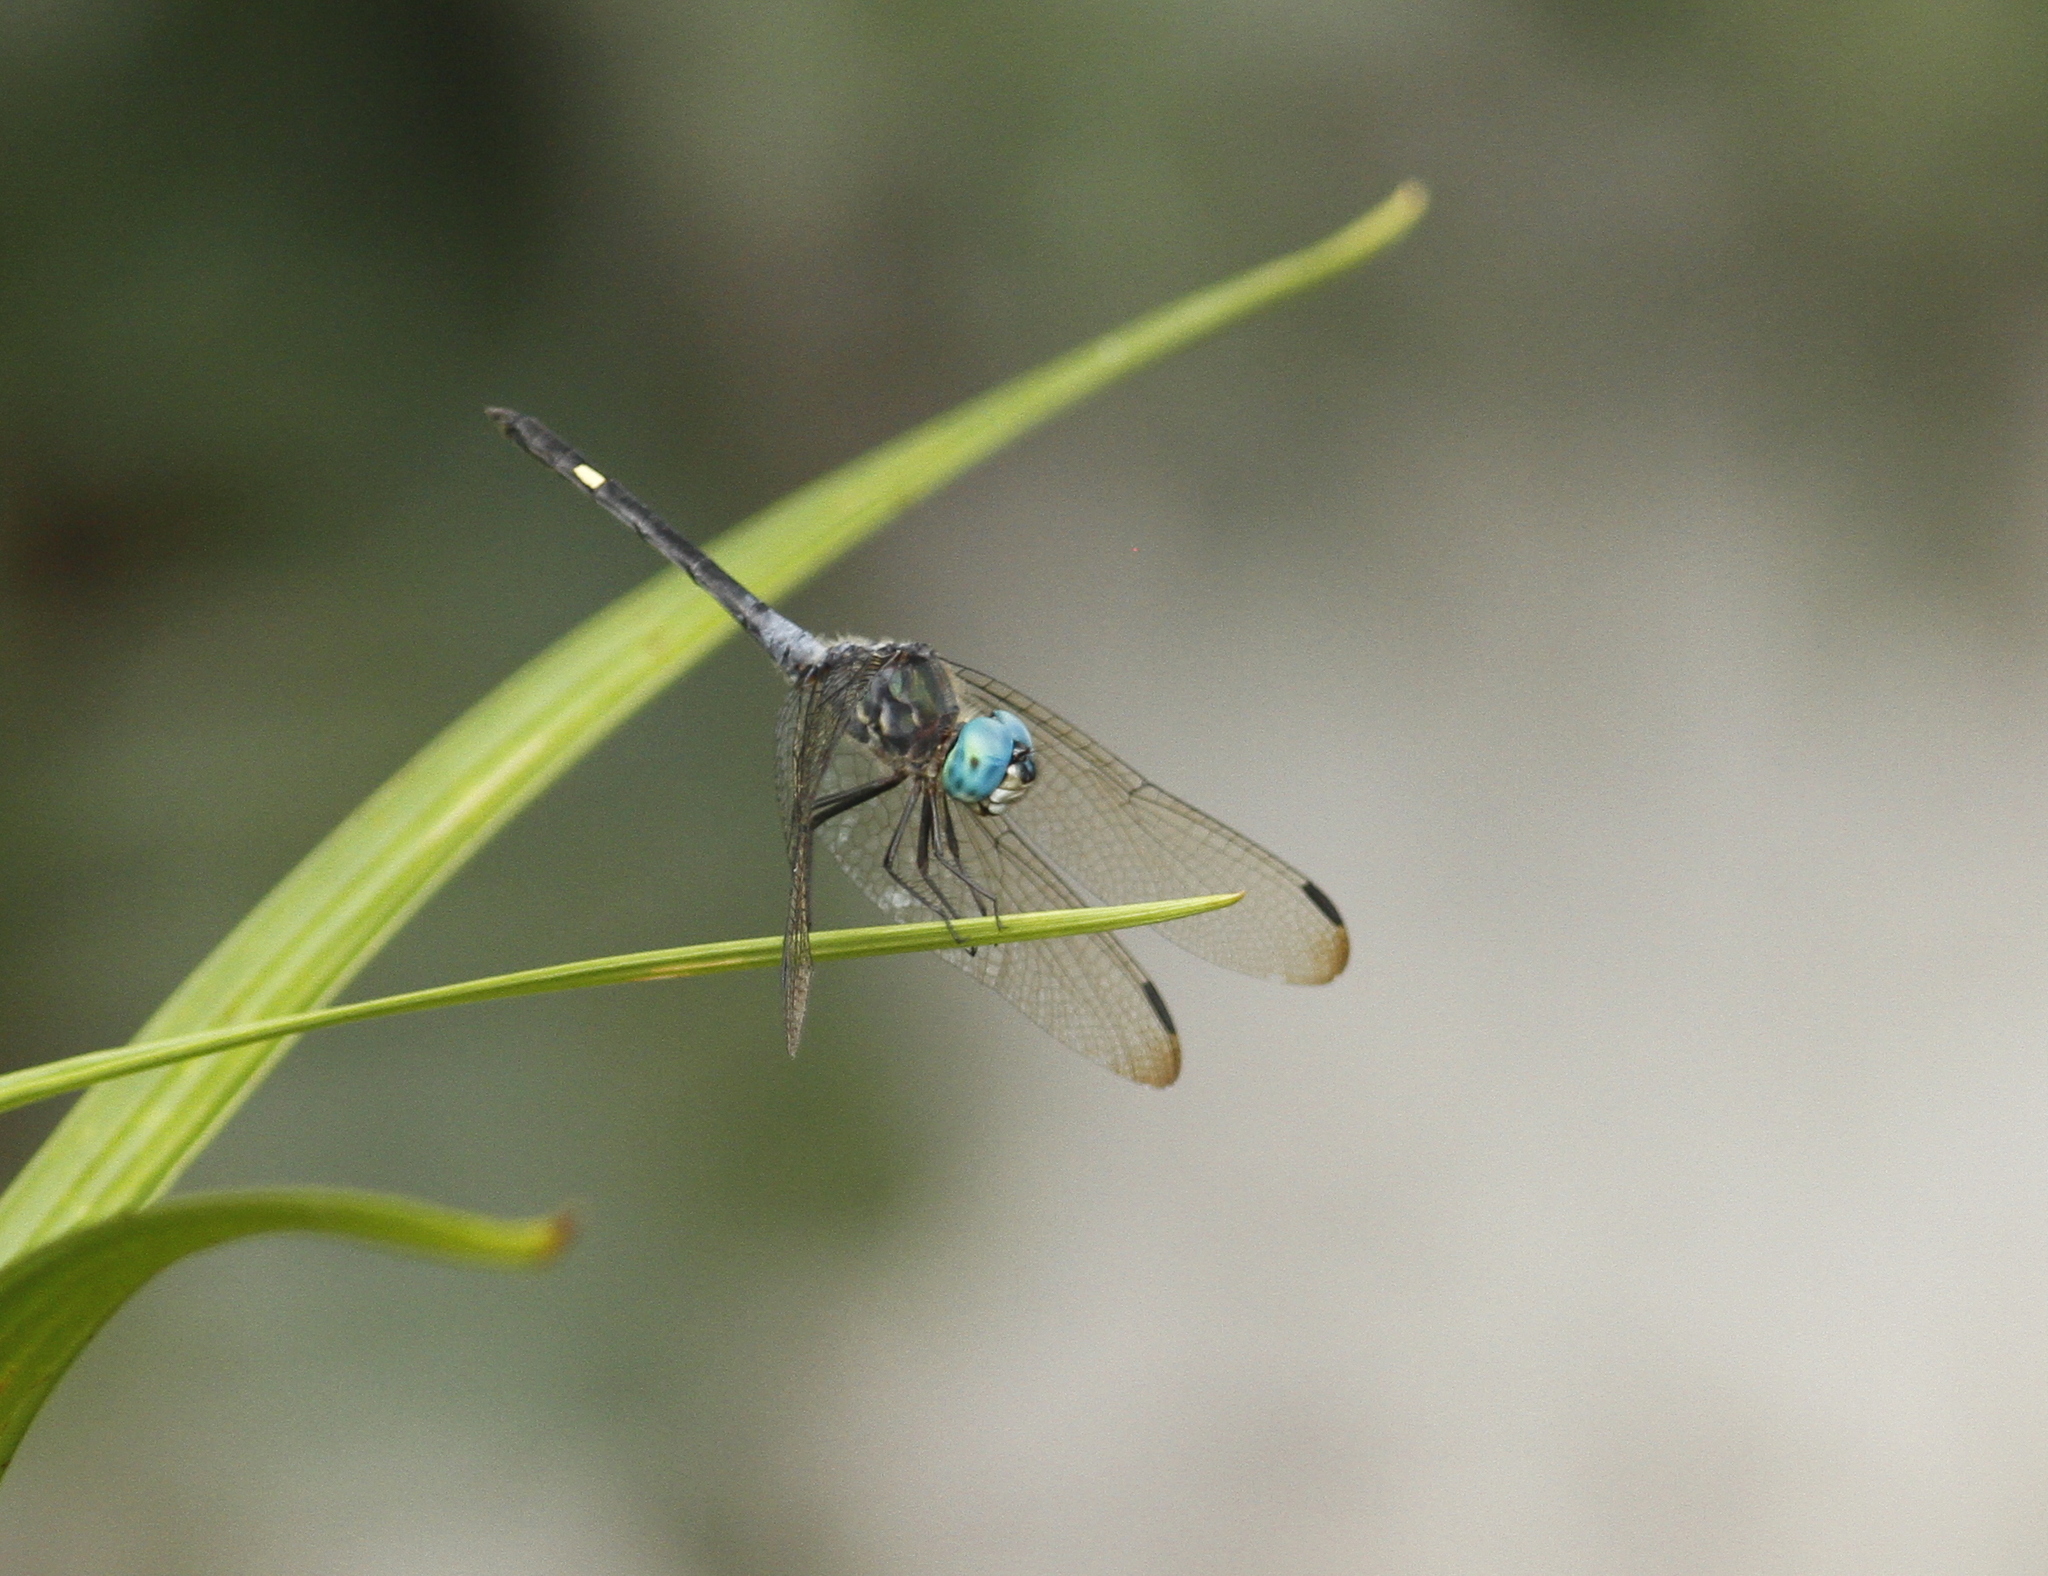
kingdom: Animalia
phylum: Arthropoda
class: Insecta
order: Odonata
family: Libellulidae
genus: Micrathyria
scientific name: Micrathyria atra
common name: Black dasher
